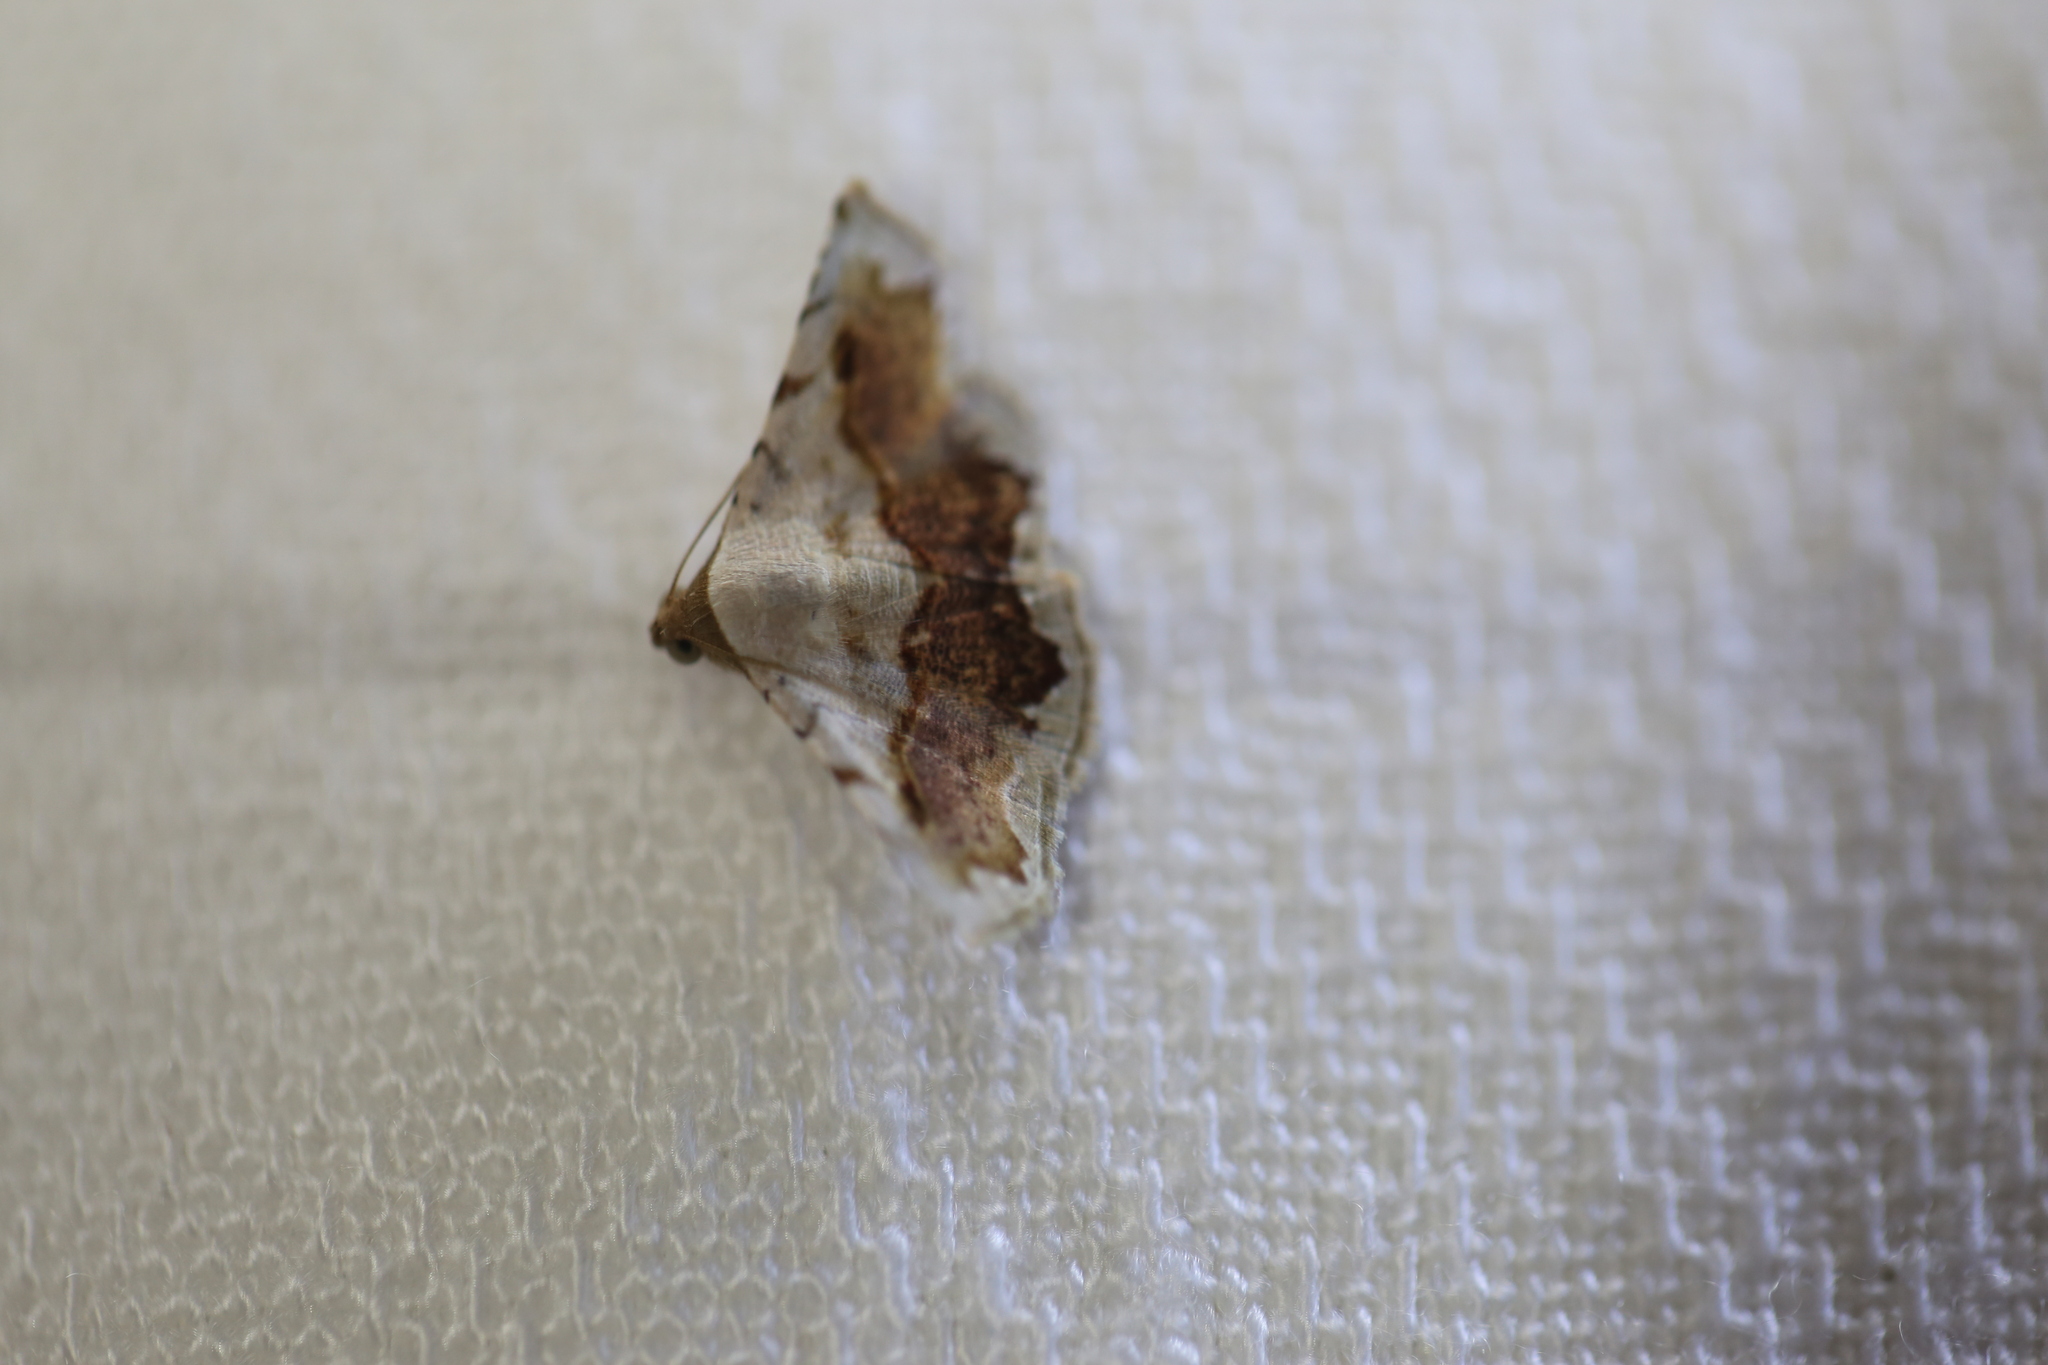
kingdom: Animalia
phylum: Arthropoda
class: Insecta
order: Lepidoptera
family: Noctuidae
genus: Eublemma
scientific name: Eublemma
